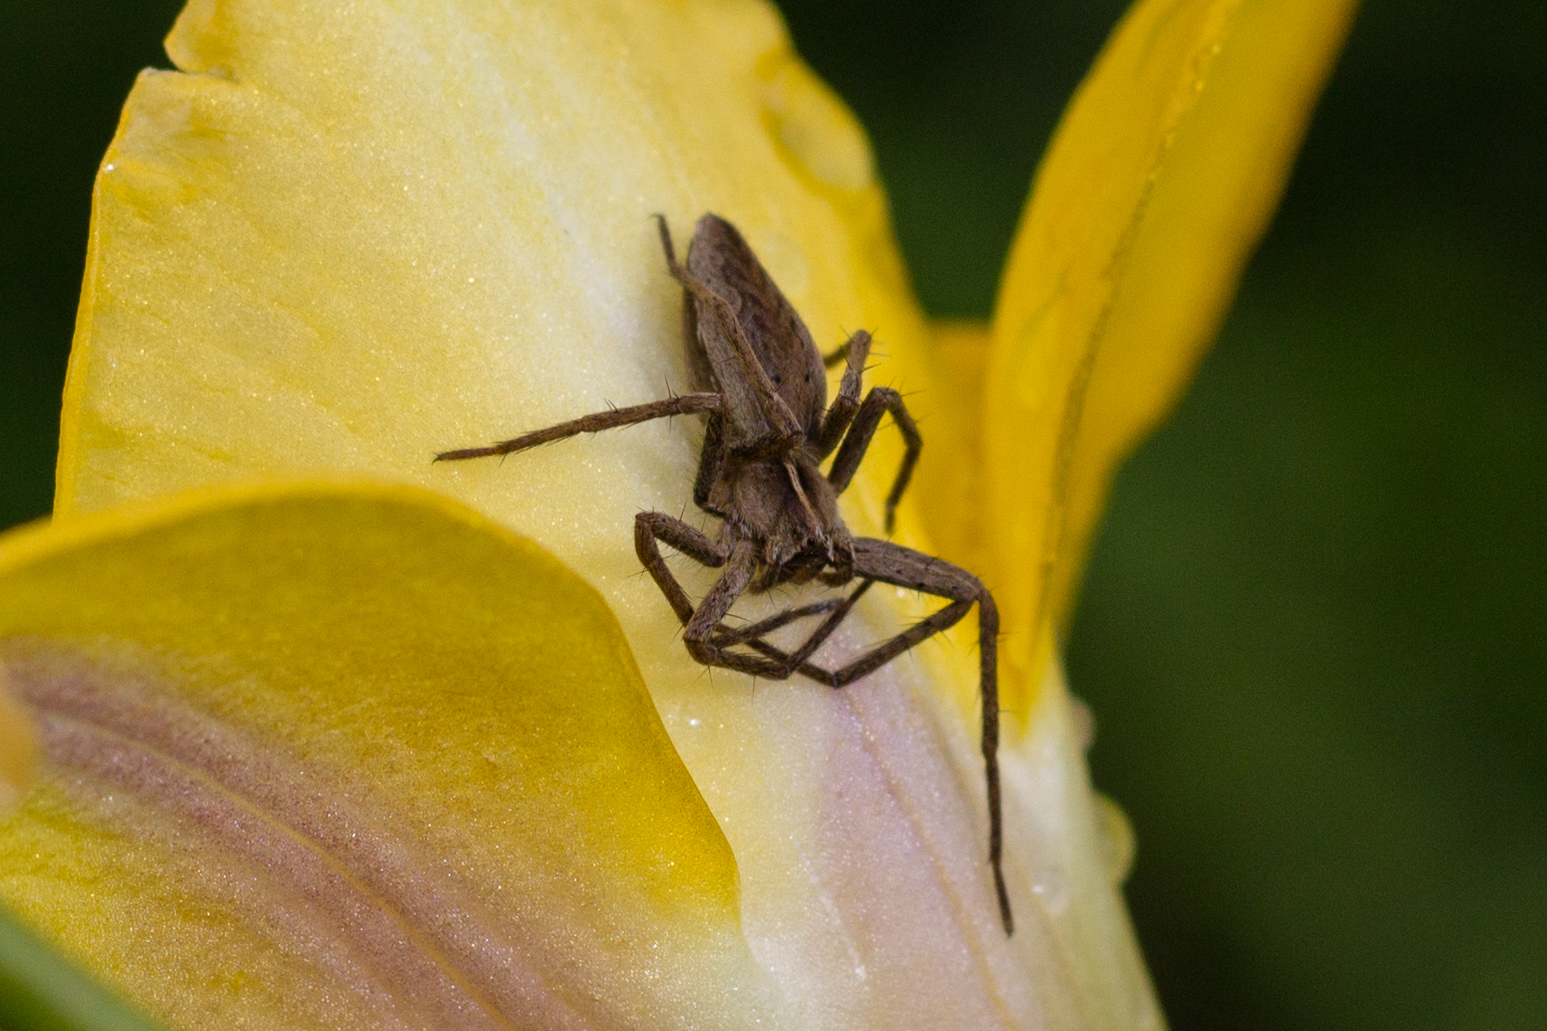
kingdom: Animalia
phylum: Arthropoda
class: Arachnida
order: Araneae
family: Pisauridae
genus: Pisaura
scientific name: Pisaura mirabilis
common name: Tent spider
